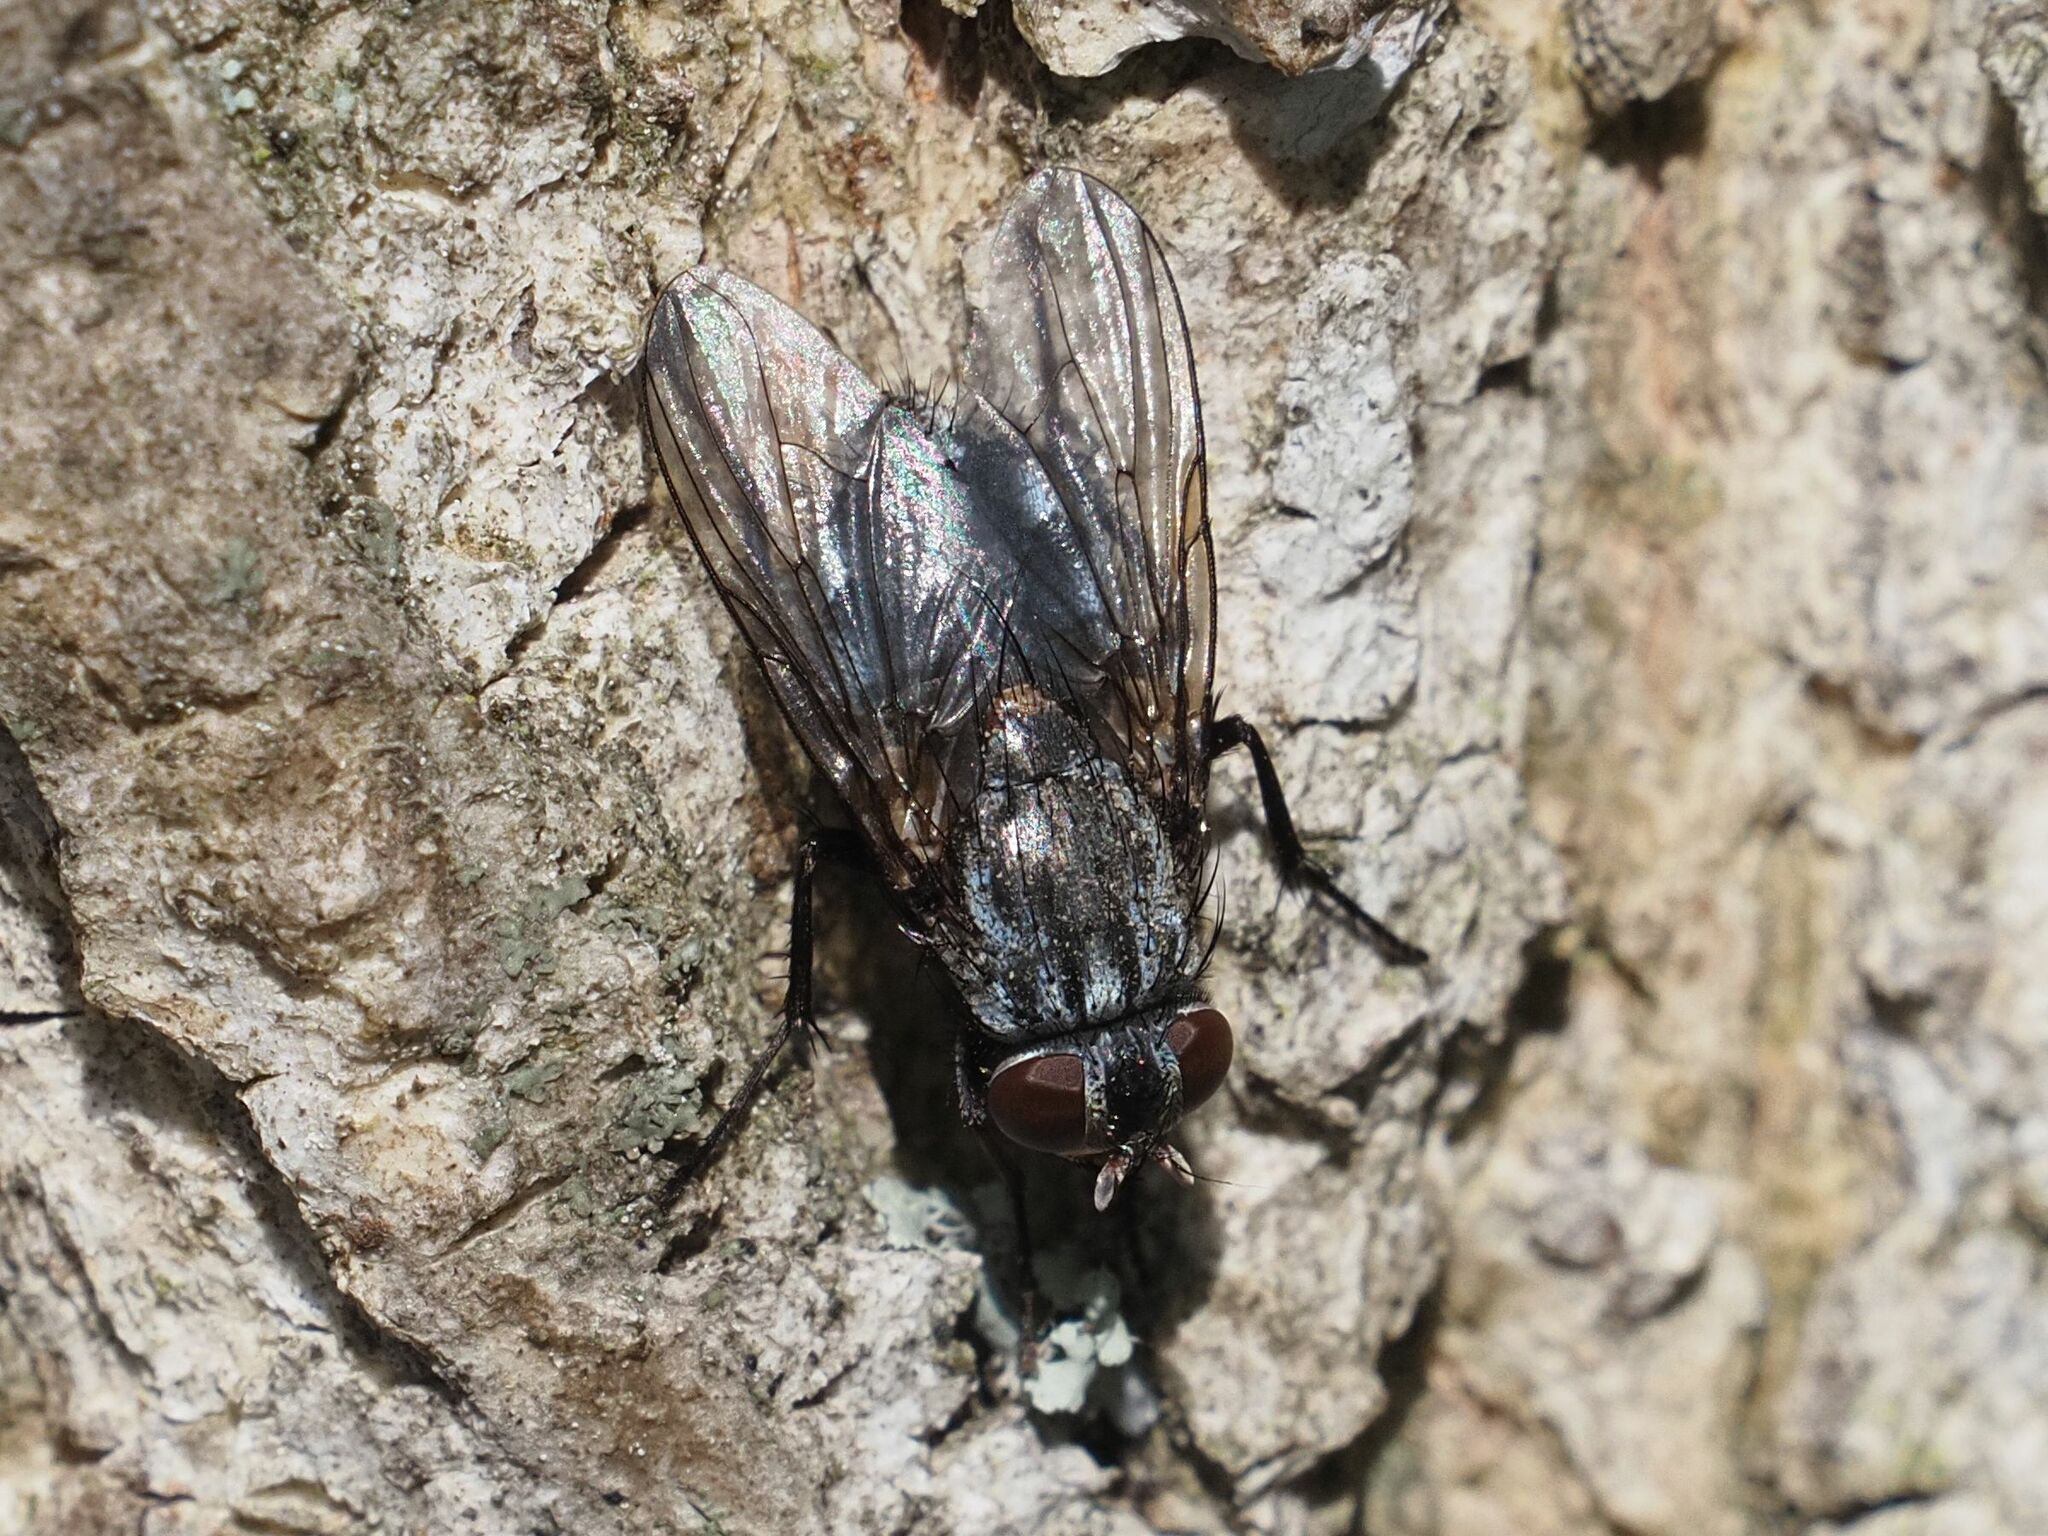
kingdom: Animalia
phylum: Arthropoda
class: Insecta
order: Diptera
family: Muscidae
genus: Muscina
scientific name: Muscina prolapsa
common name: Muscoid fly
